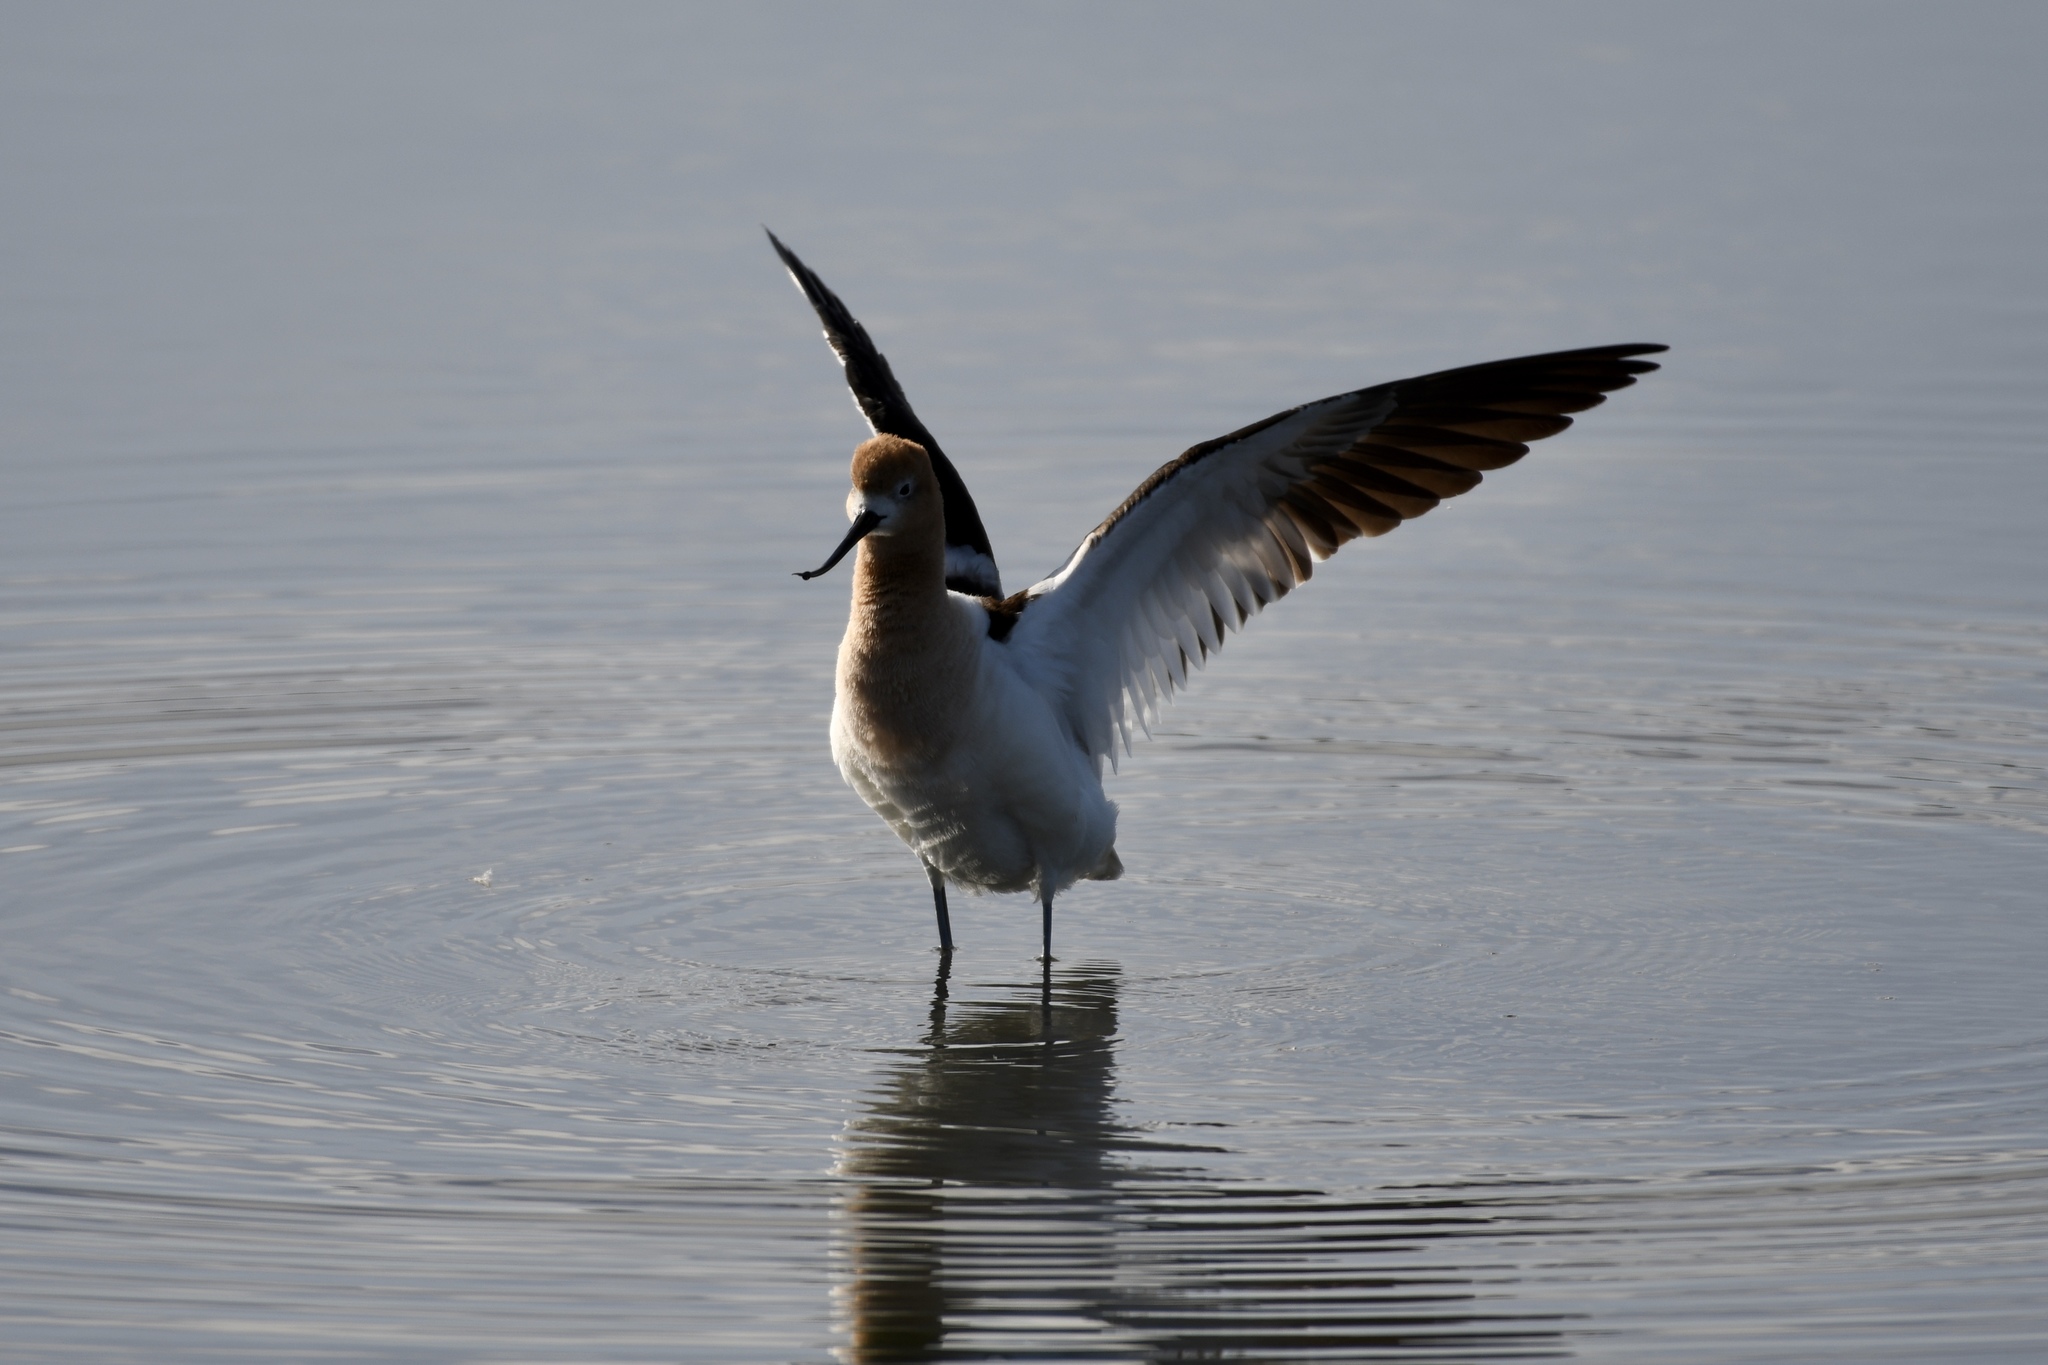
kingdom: Animalia
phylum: Chordata
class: Aves
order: Charadriiformes
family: Recurvirostridae
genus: Recurvirostra
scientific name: Recurvirostra americana
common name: American avocet
